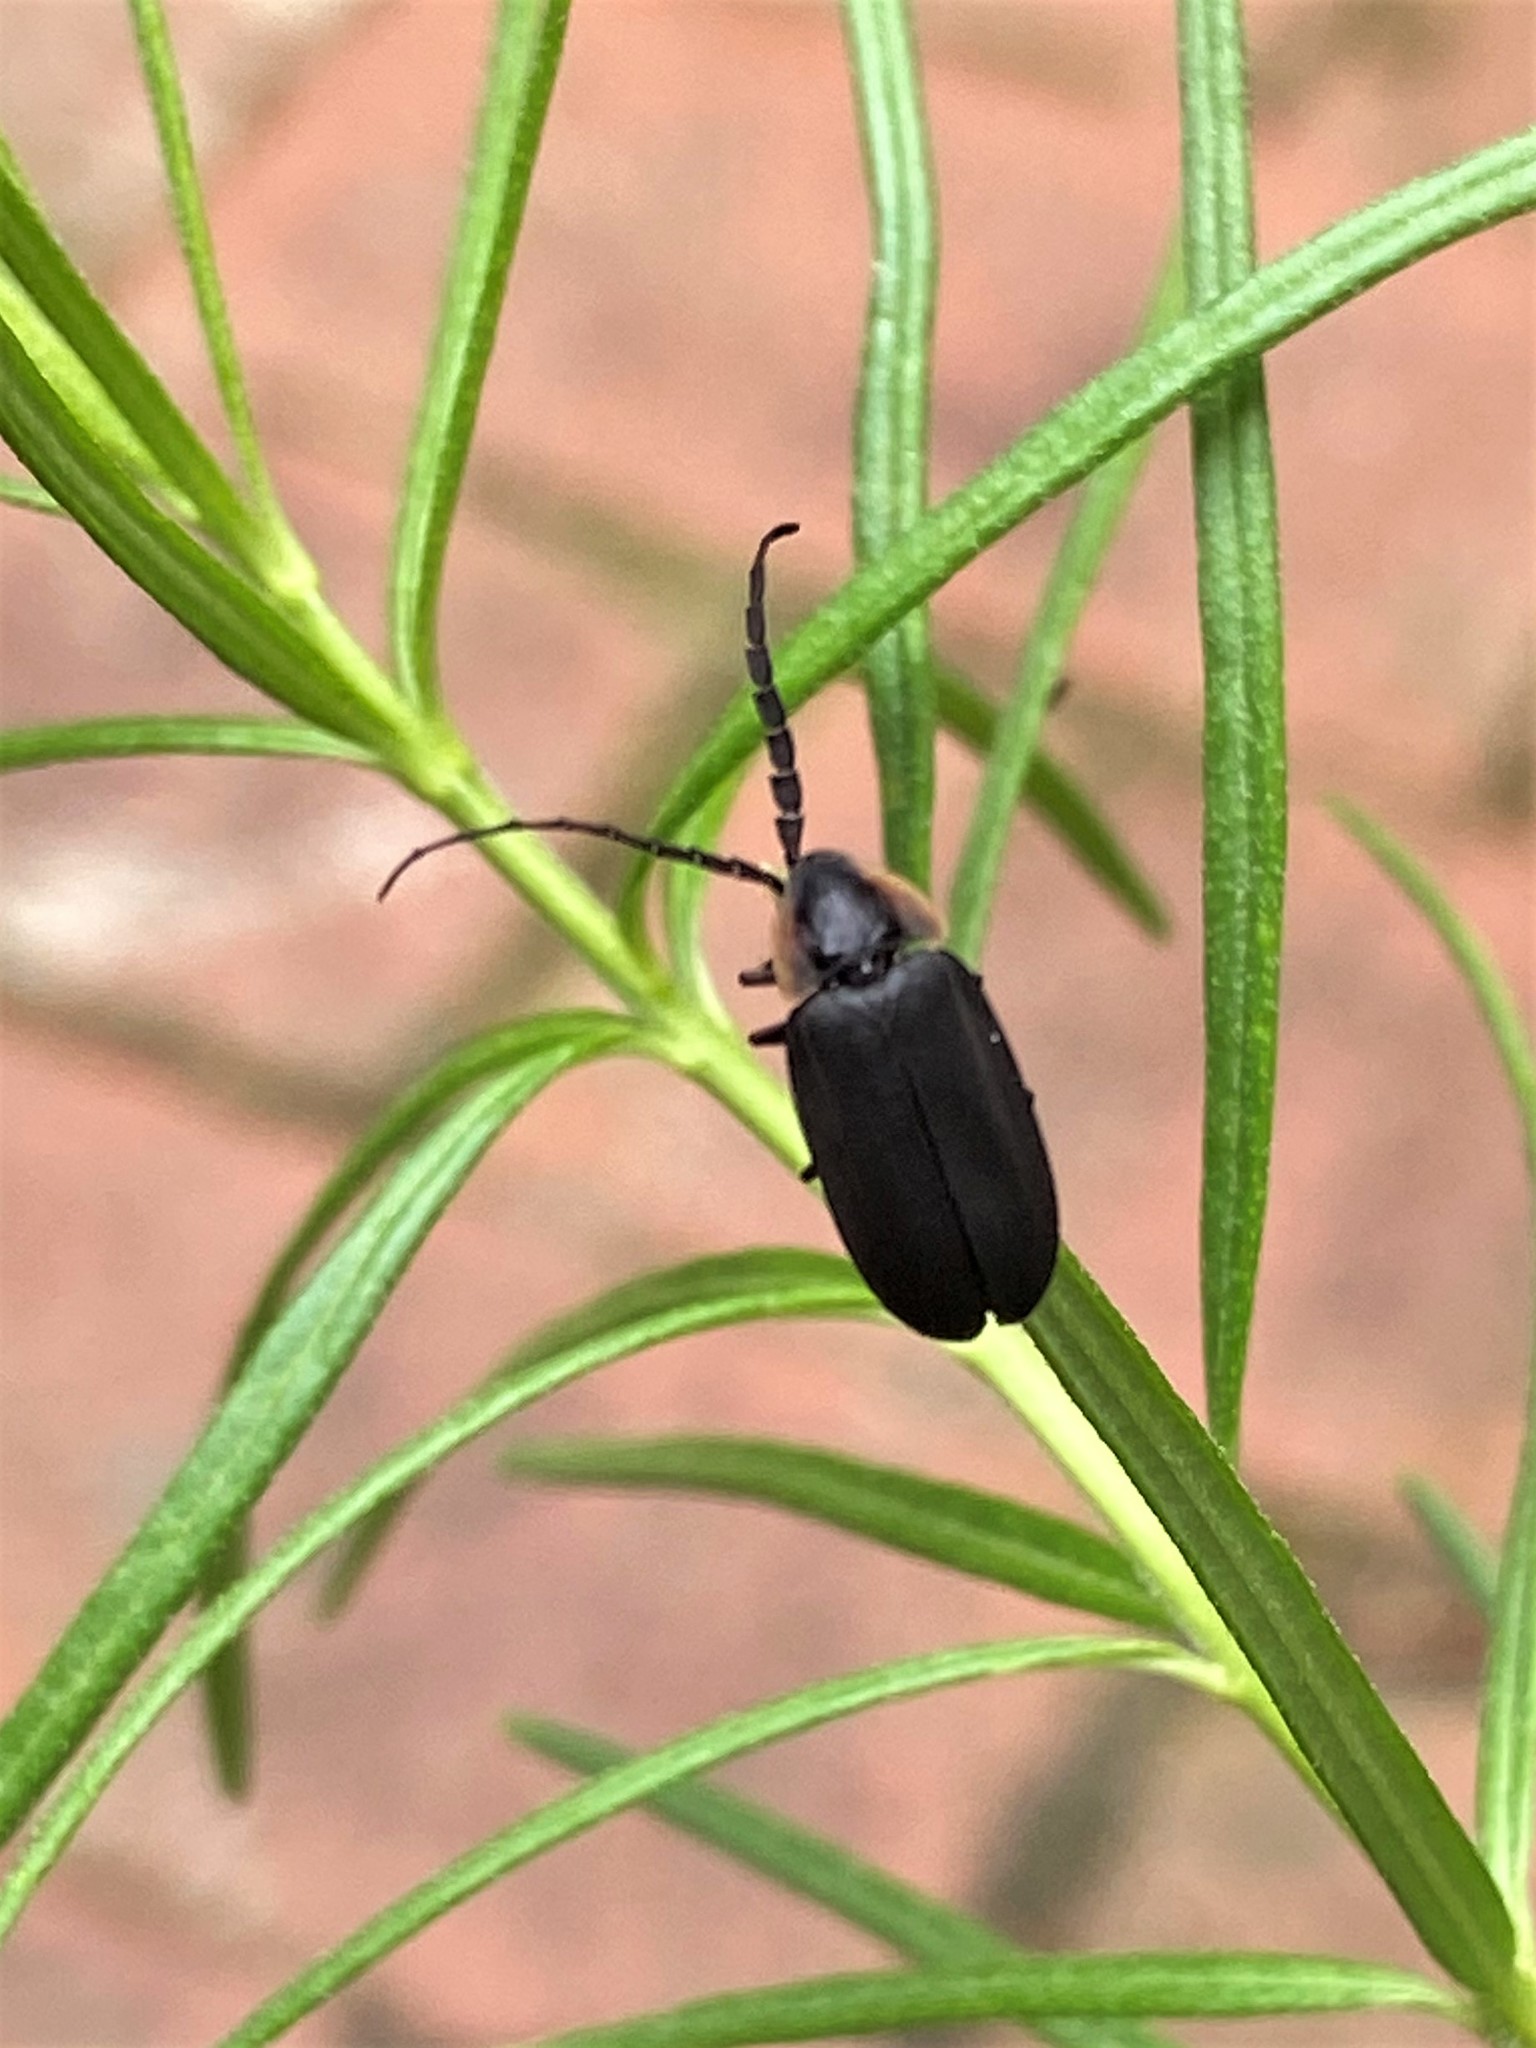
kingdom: Animalia
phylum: Arthropoda
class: Insecta
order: Coleoptera
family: Lampyridae
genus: Lucidota
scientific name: Lucidota atra
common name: Black firefly
